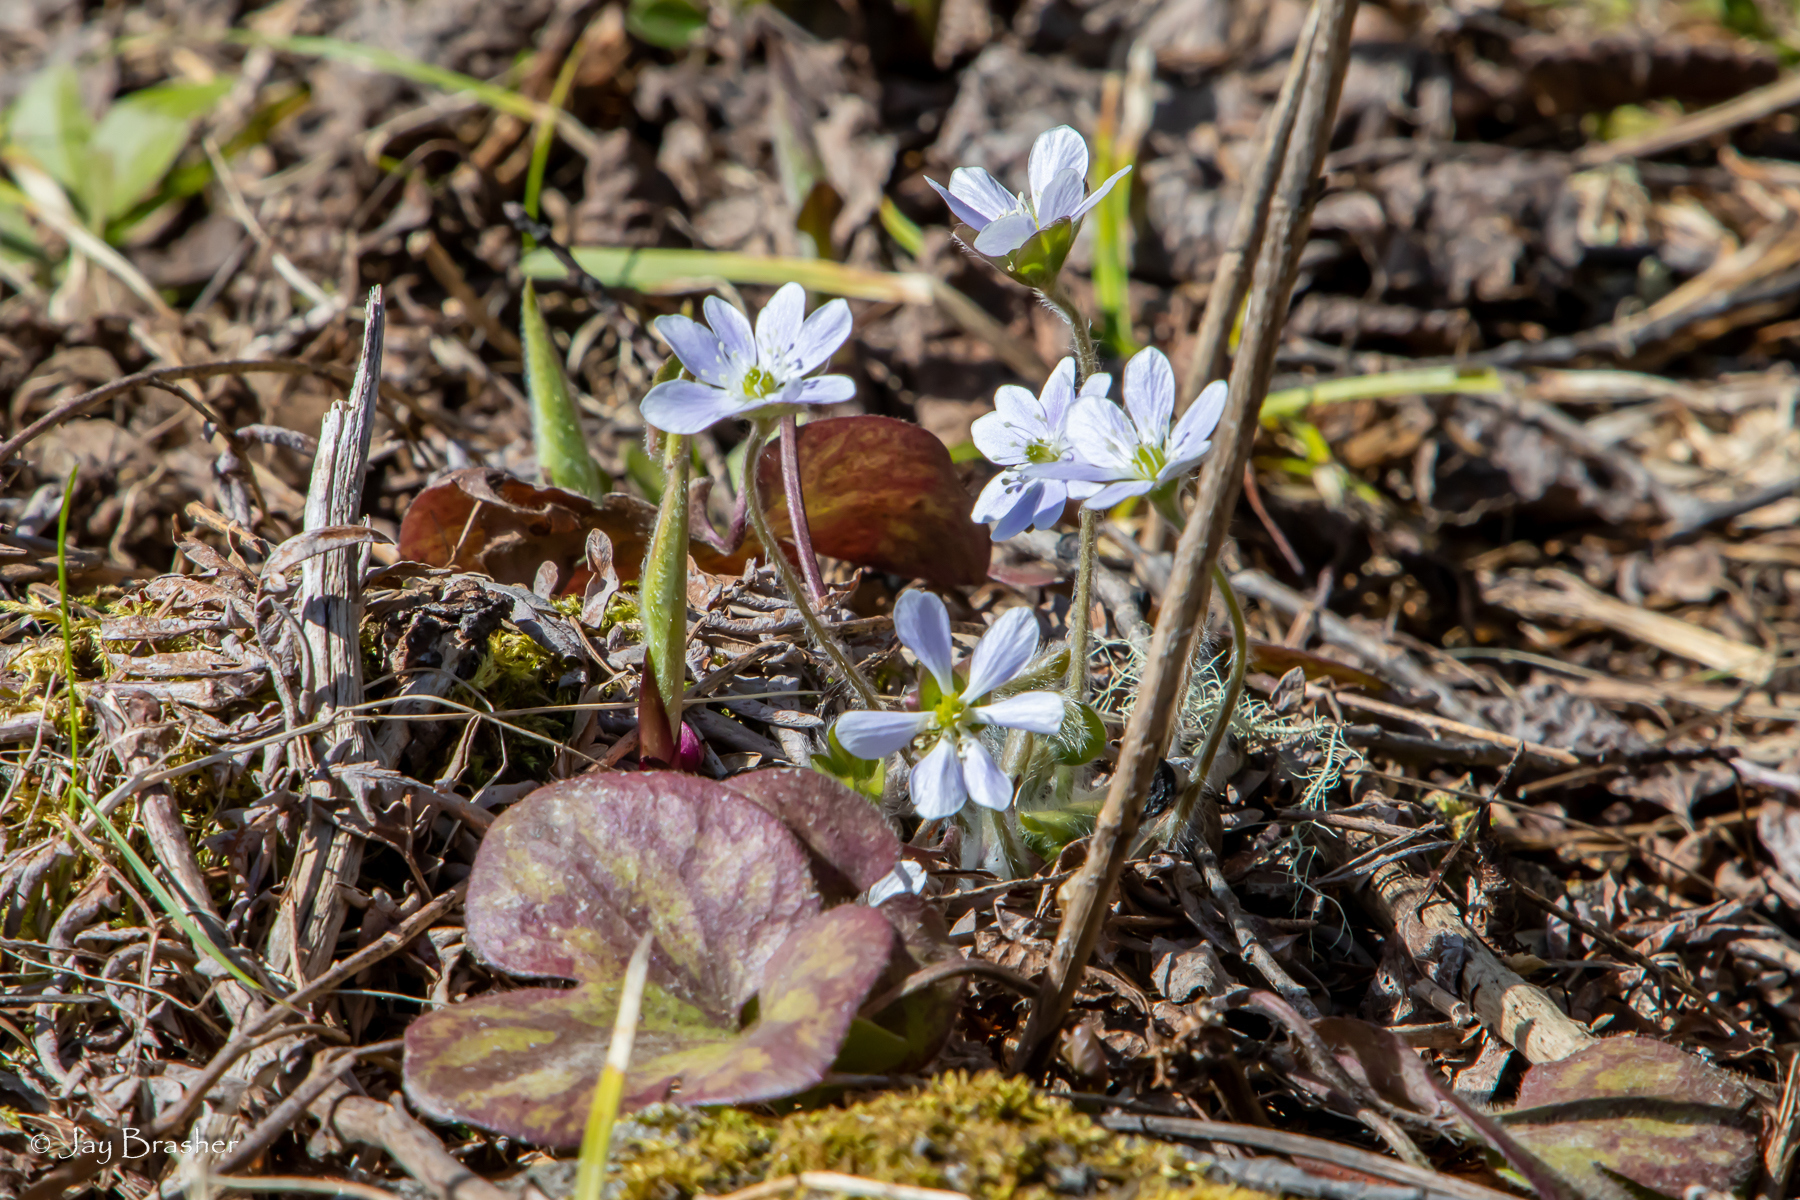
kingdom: Plantae
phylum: Tracheophyta
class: Magnoliopsida
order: Ranunculales
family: Ranunculaceae
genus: Hepatica
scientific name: Hepatica americana
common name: American hepatica
